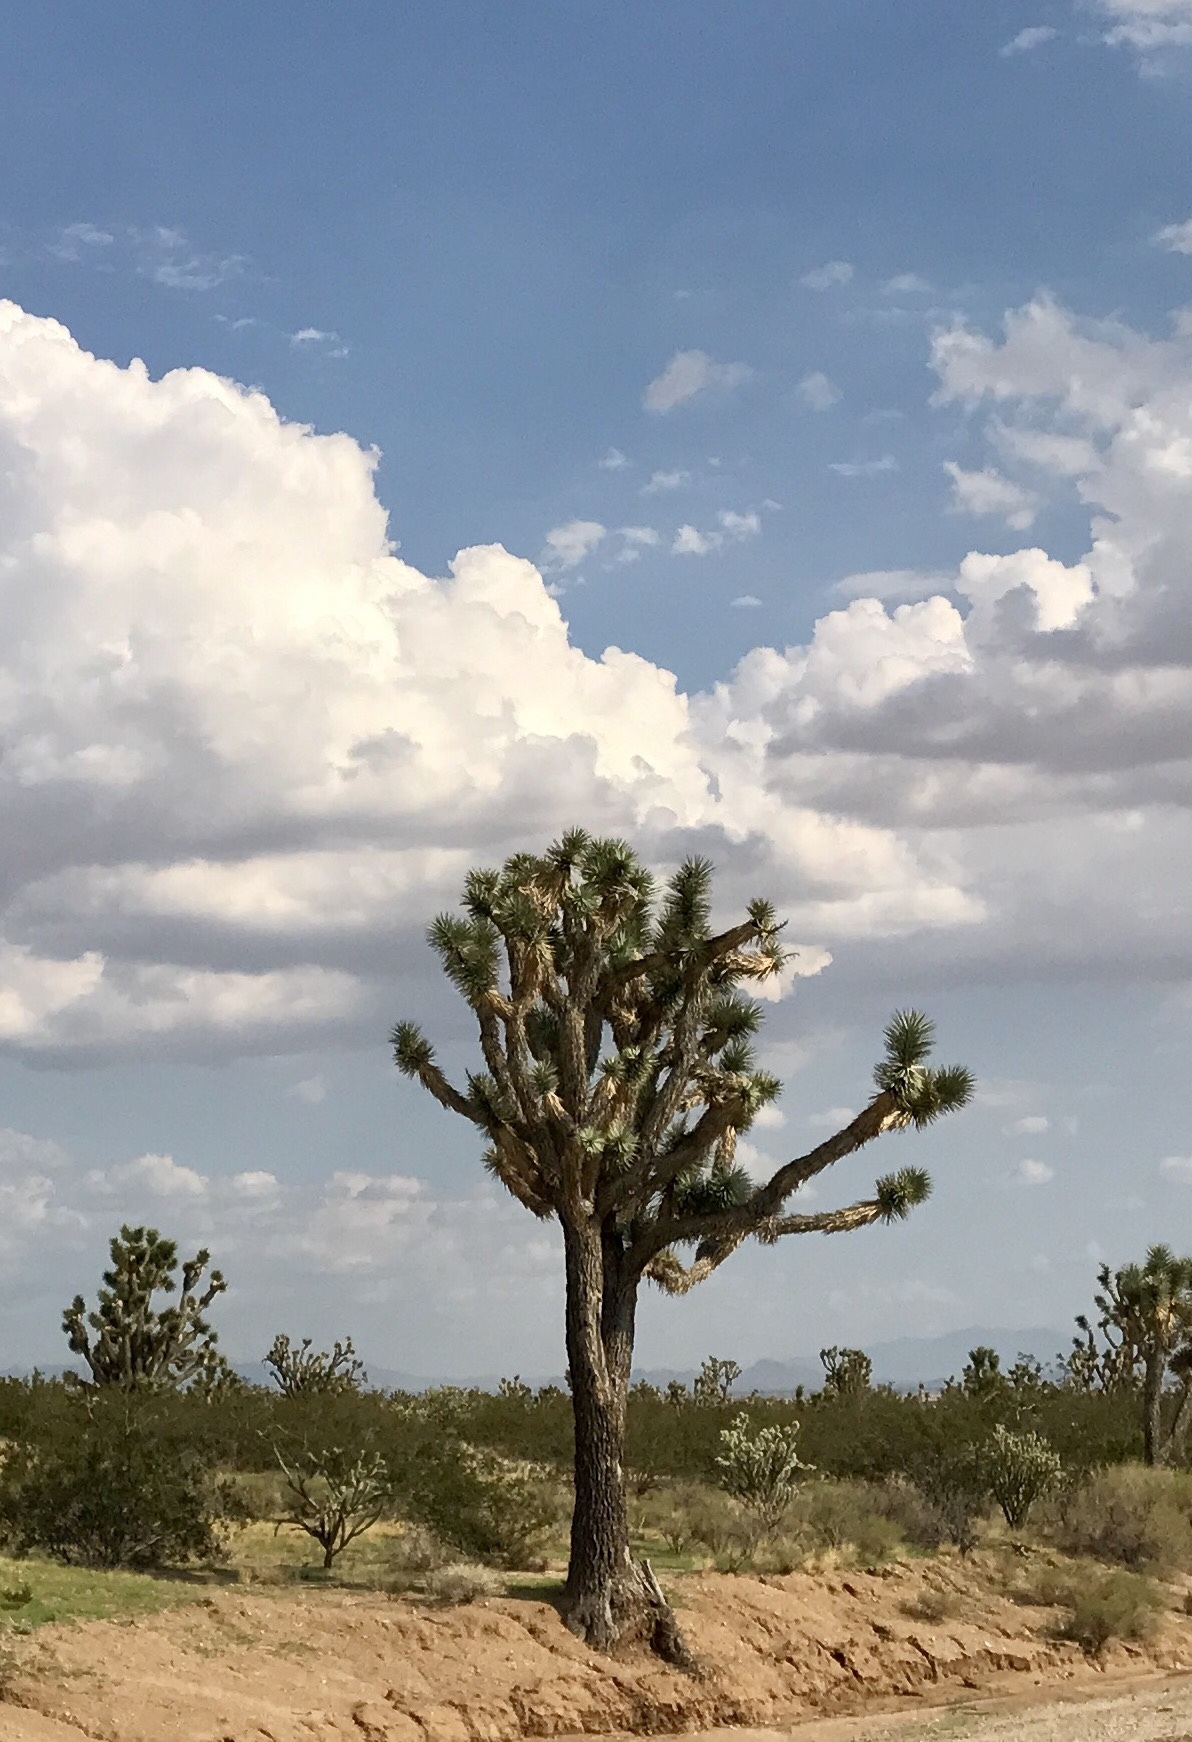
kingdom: Plantae
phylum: Tracheophyta
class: Liliopsida
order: Asparagales
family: Asparagaceae
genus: Yucca
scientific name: Yucca brevifolia
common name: Joshua tree
